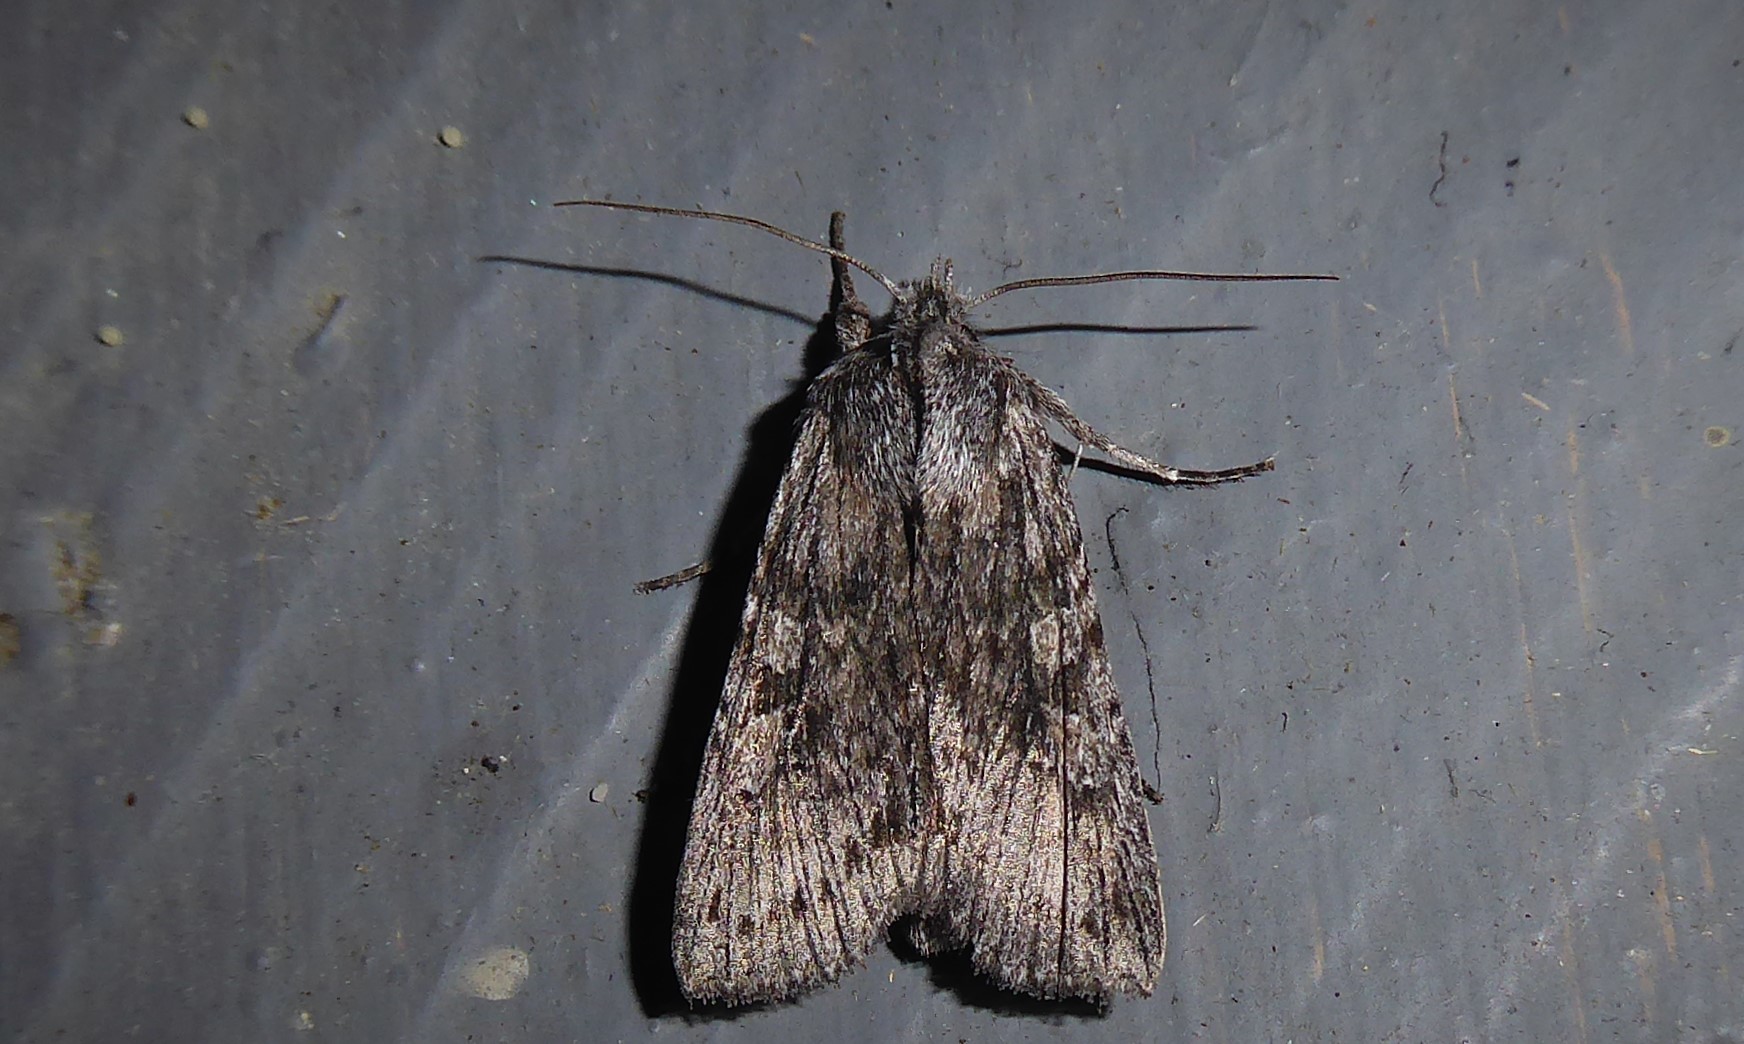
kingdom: Animalia
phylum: Arthropoda
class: Insecta
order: Lepidoptera
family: Noctuidae
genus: Physetica
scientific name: Physetica phricias
